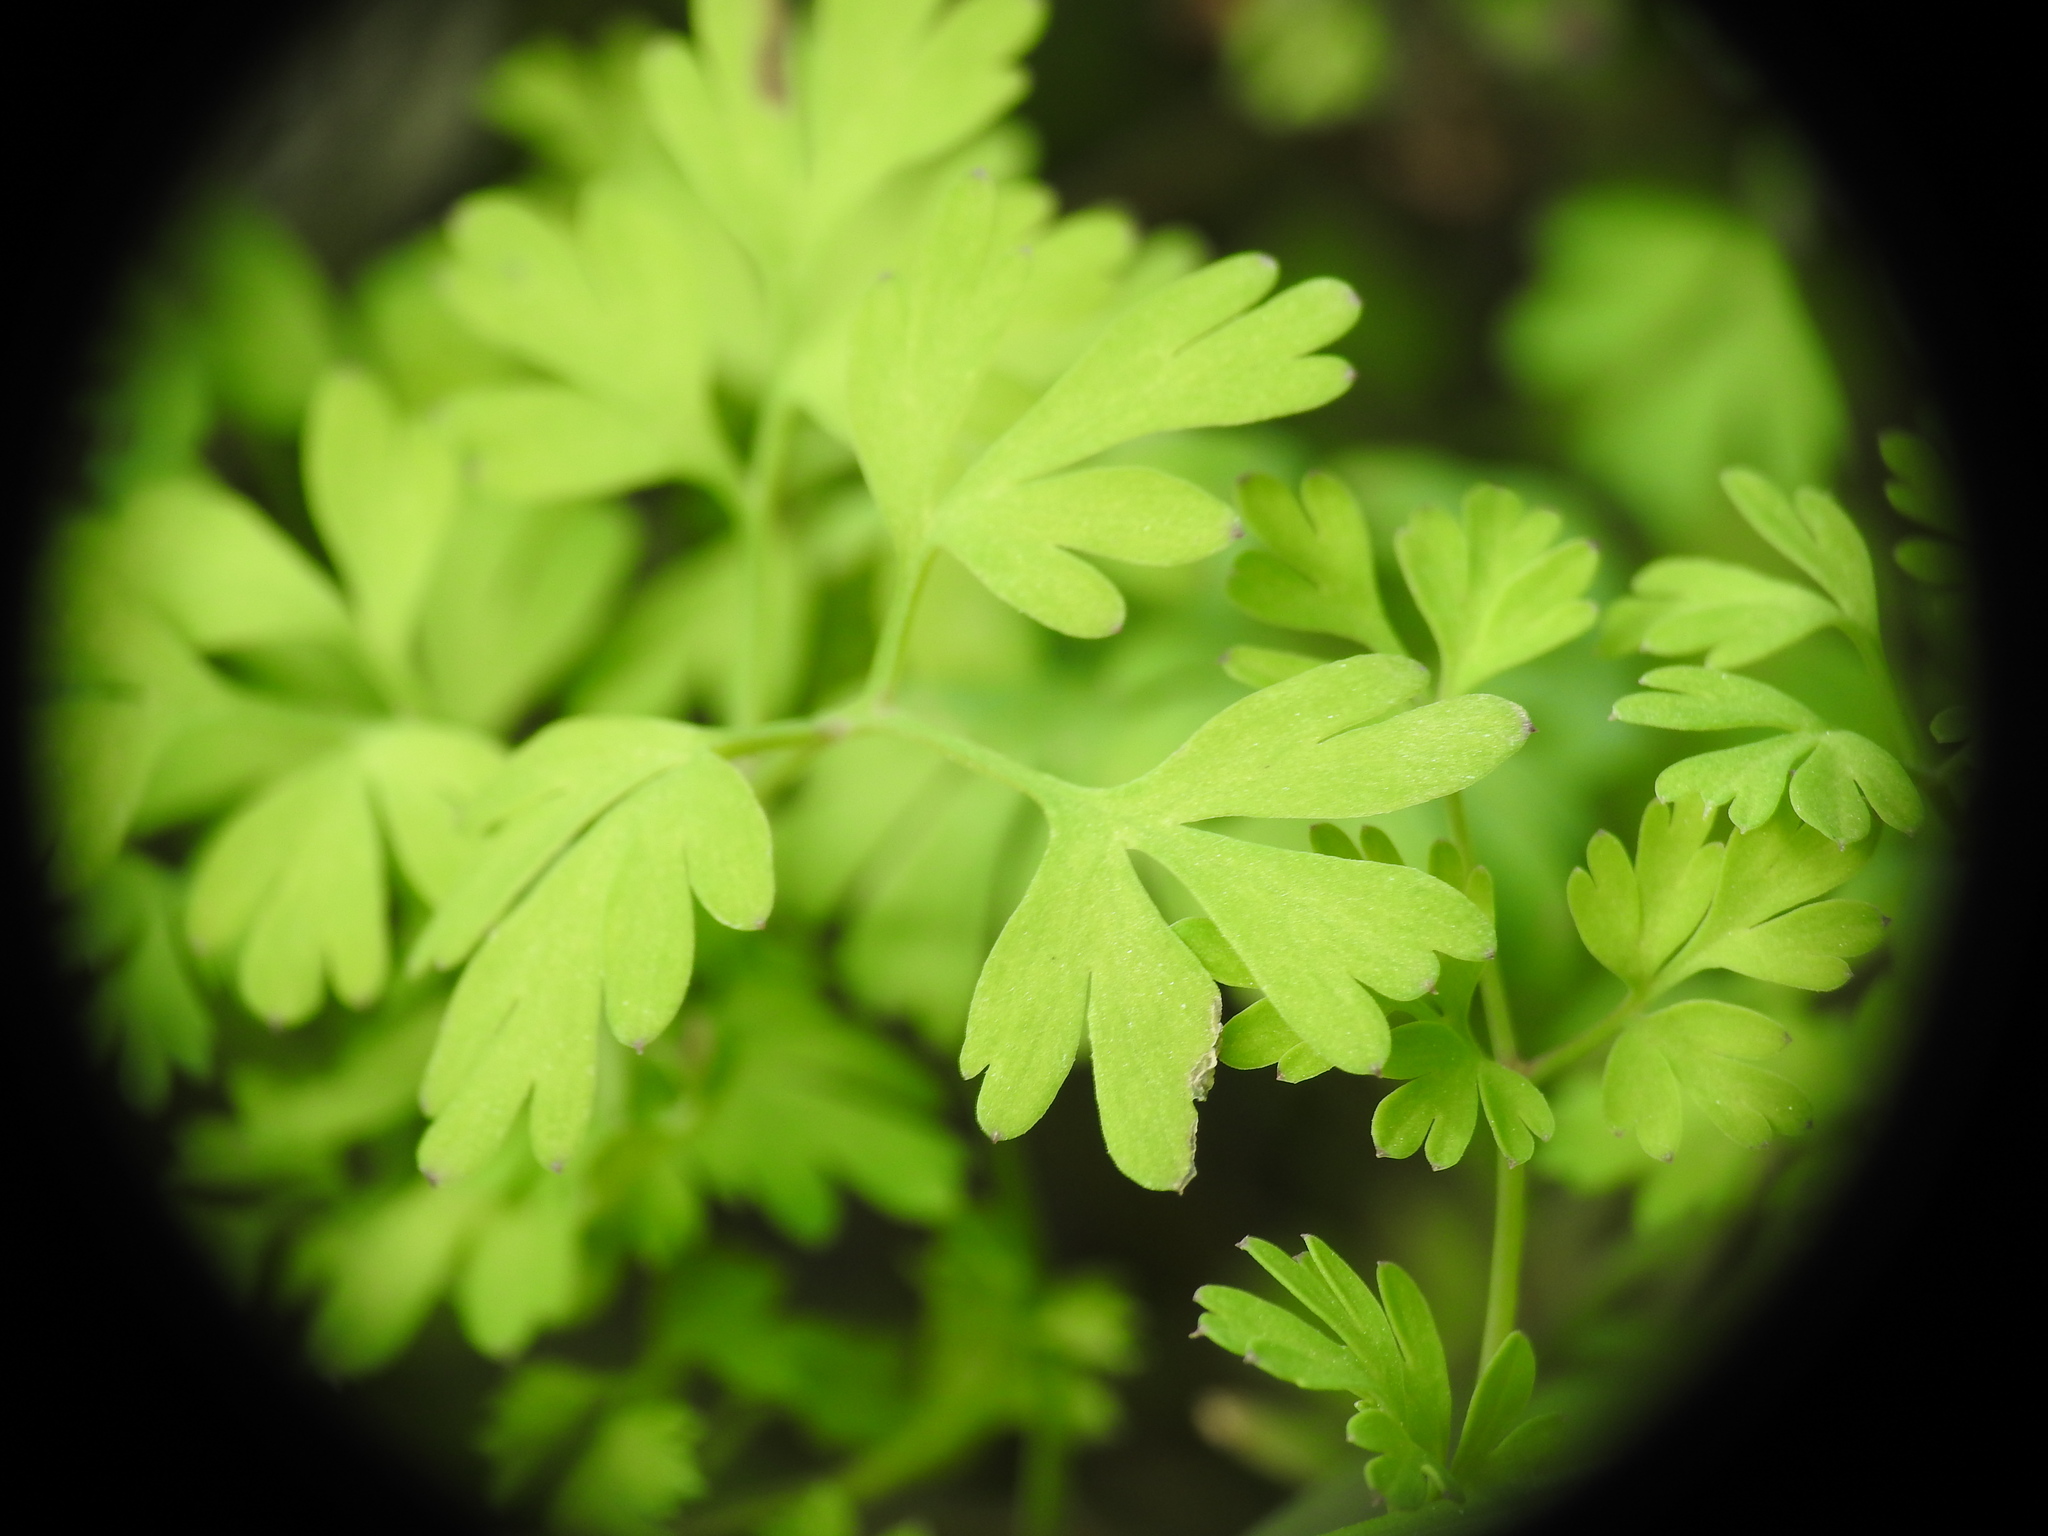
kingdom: Plantae
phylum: Tracheophyta
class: Magnoliopsida
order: Ranunculales
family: Papaveraceae
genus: Fumaria
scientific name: Fumaria bastardii
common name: Tall ramping-fumitory
